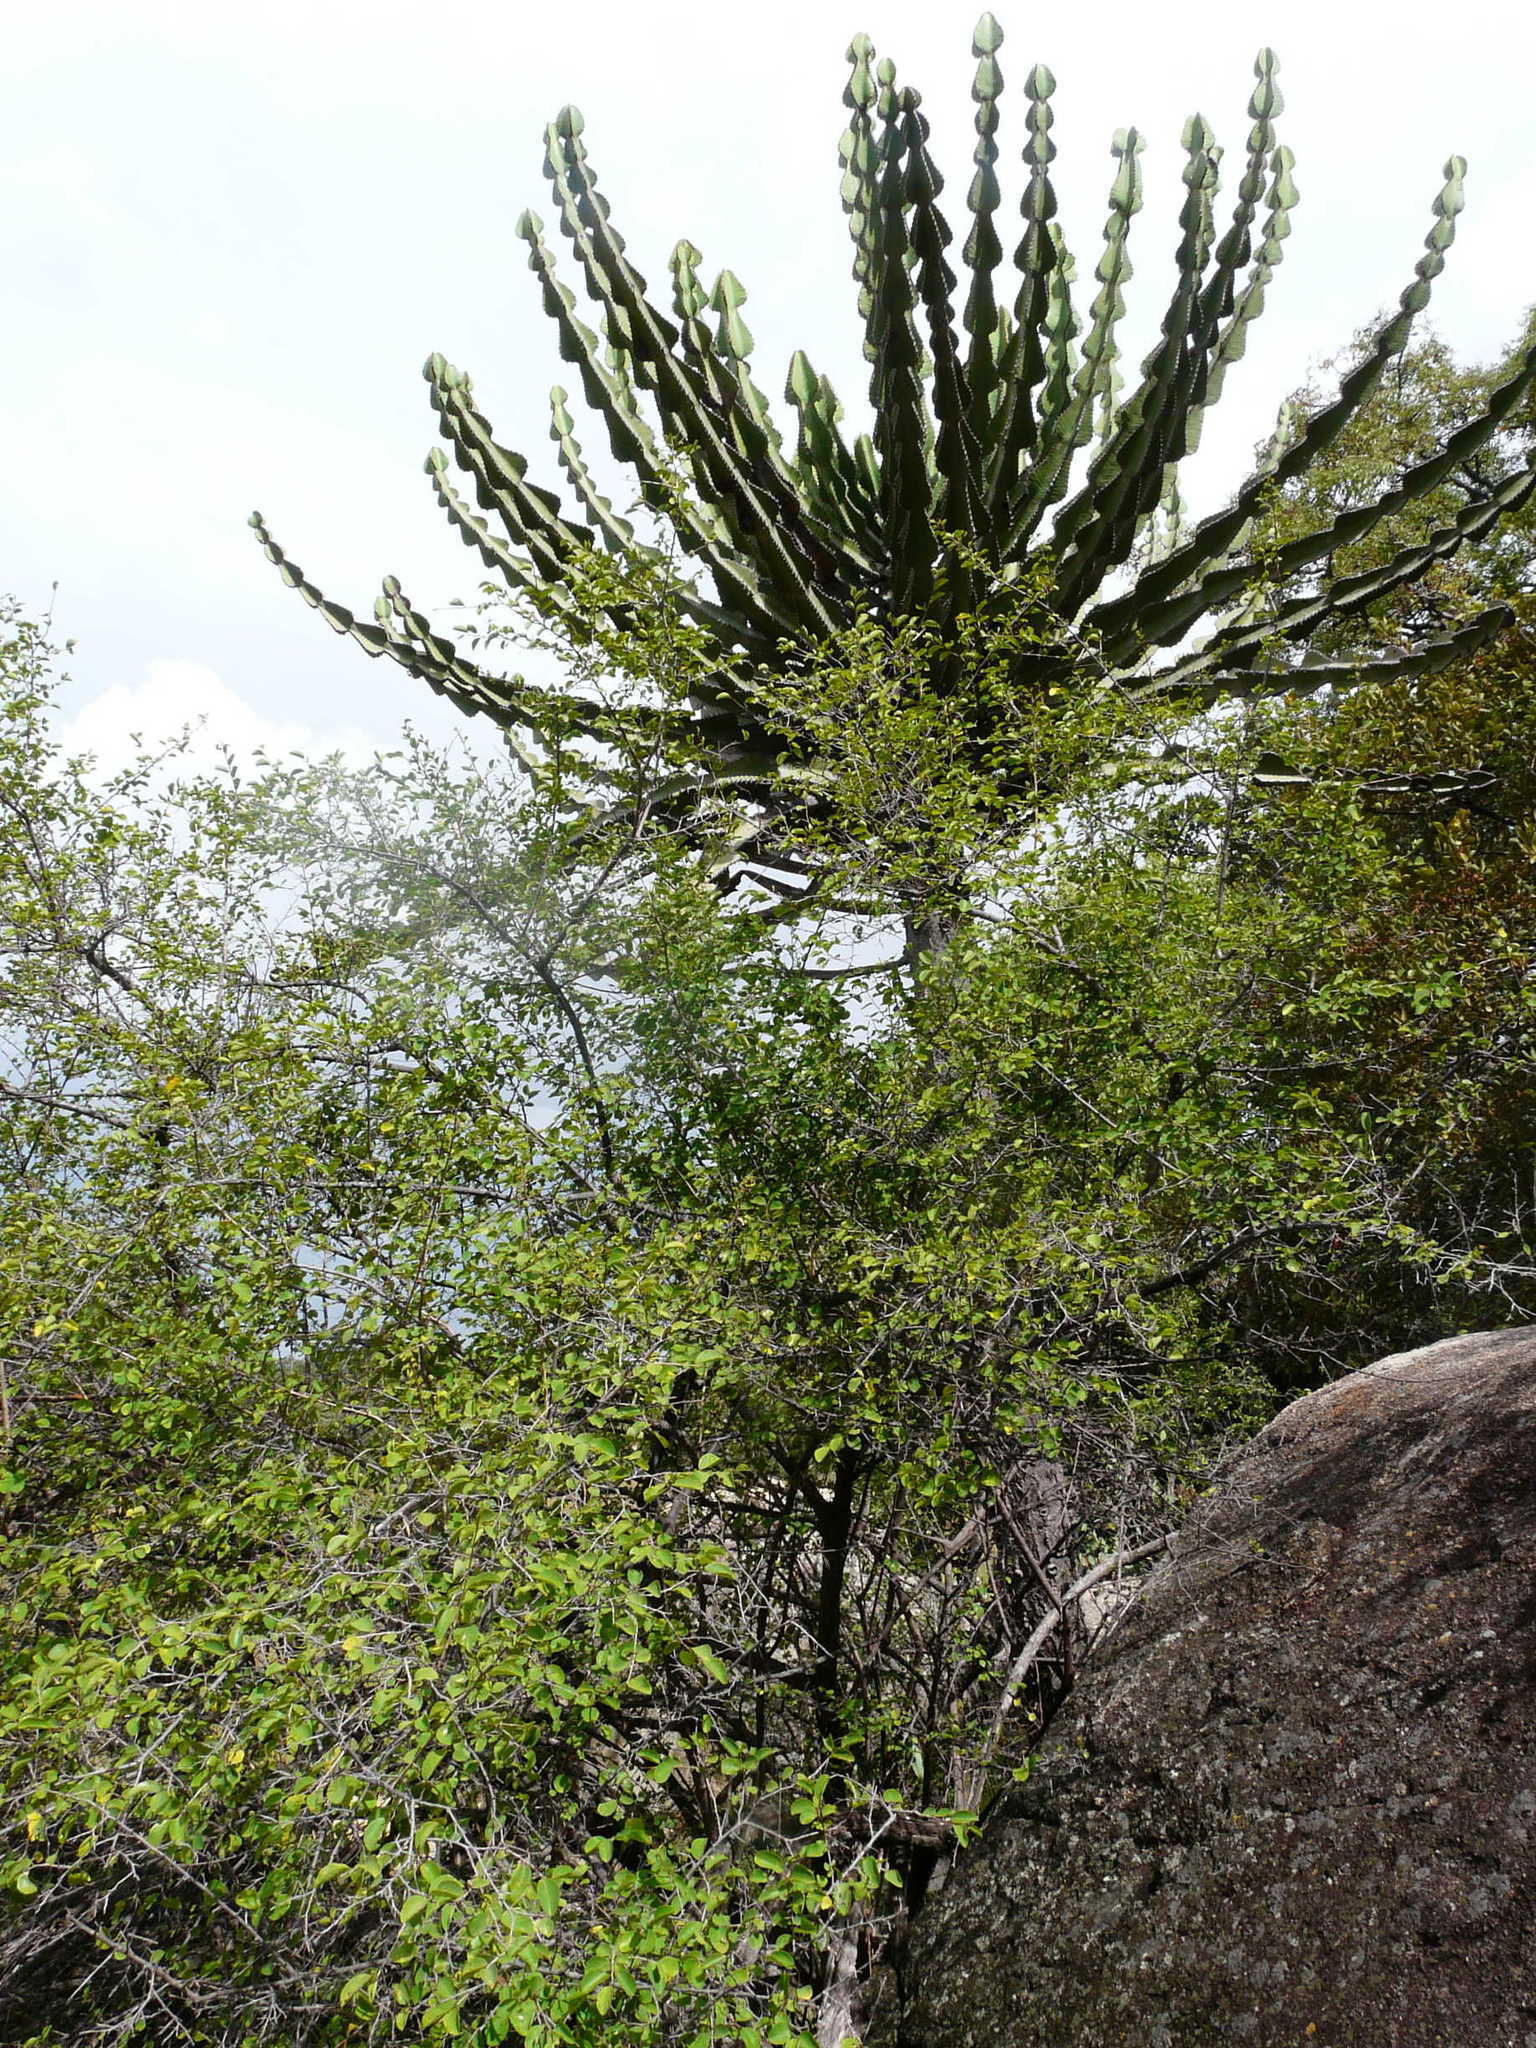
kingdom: Plantae
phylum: Tracheophyta
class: Magnoliopsida
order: Malpighiales
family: Euphorbiaceae
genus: Euphorbia
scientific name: Euphorbia cooperi
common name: Candelabra tree
